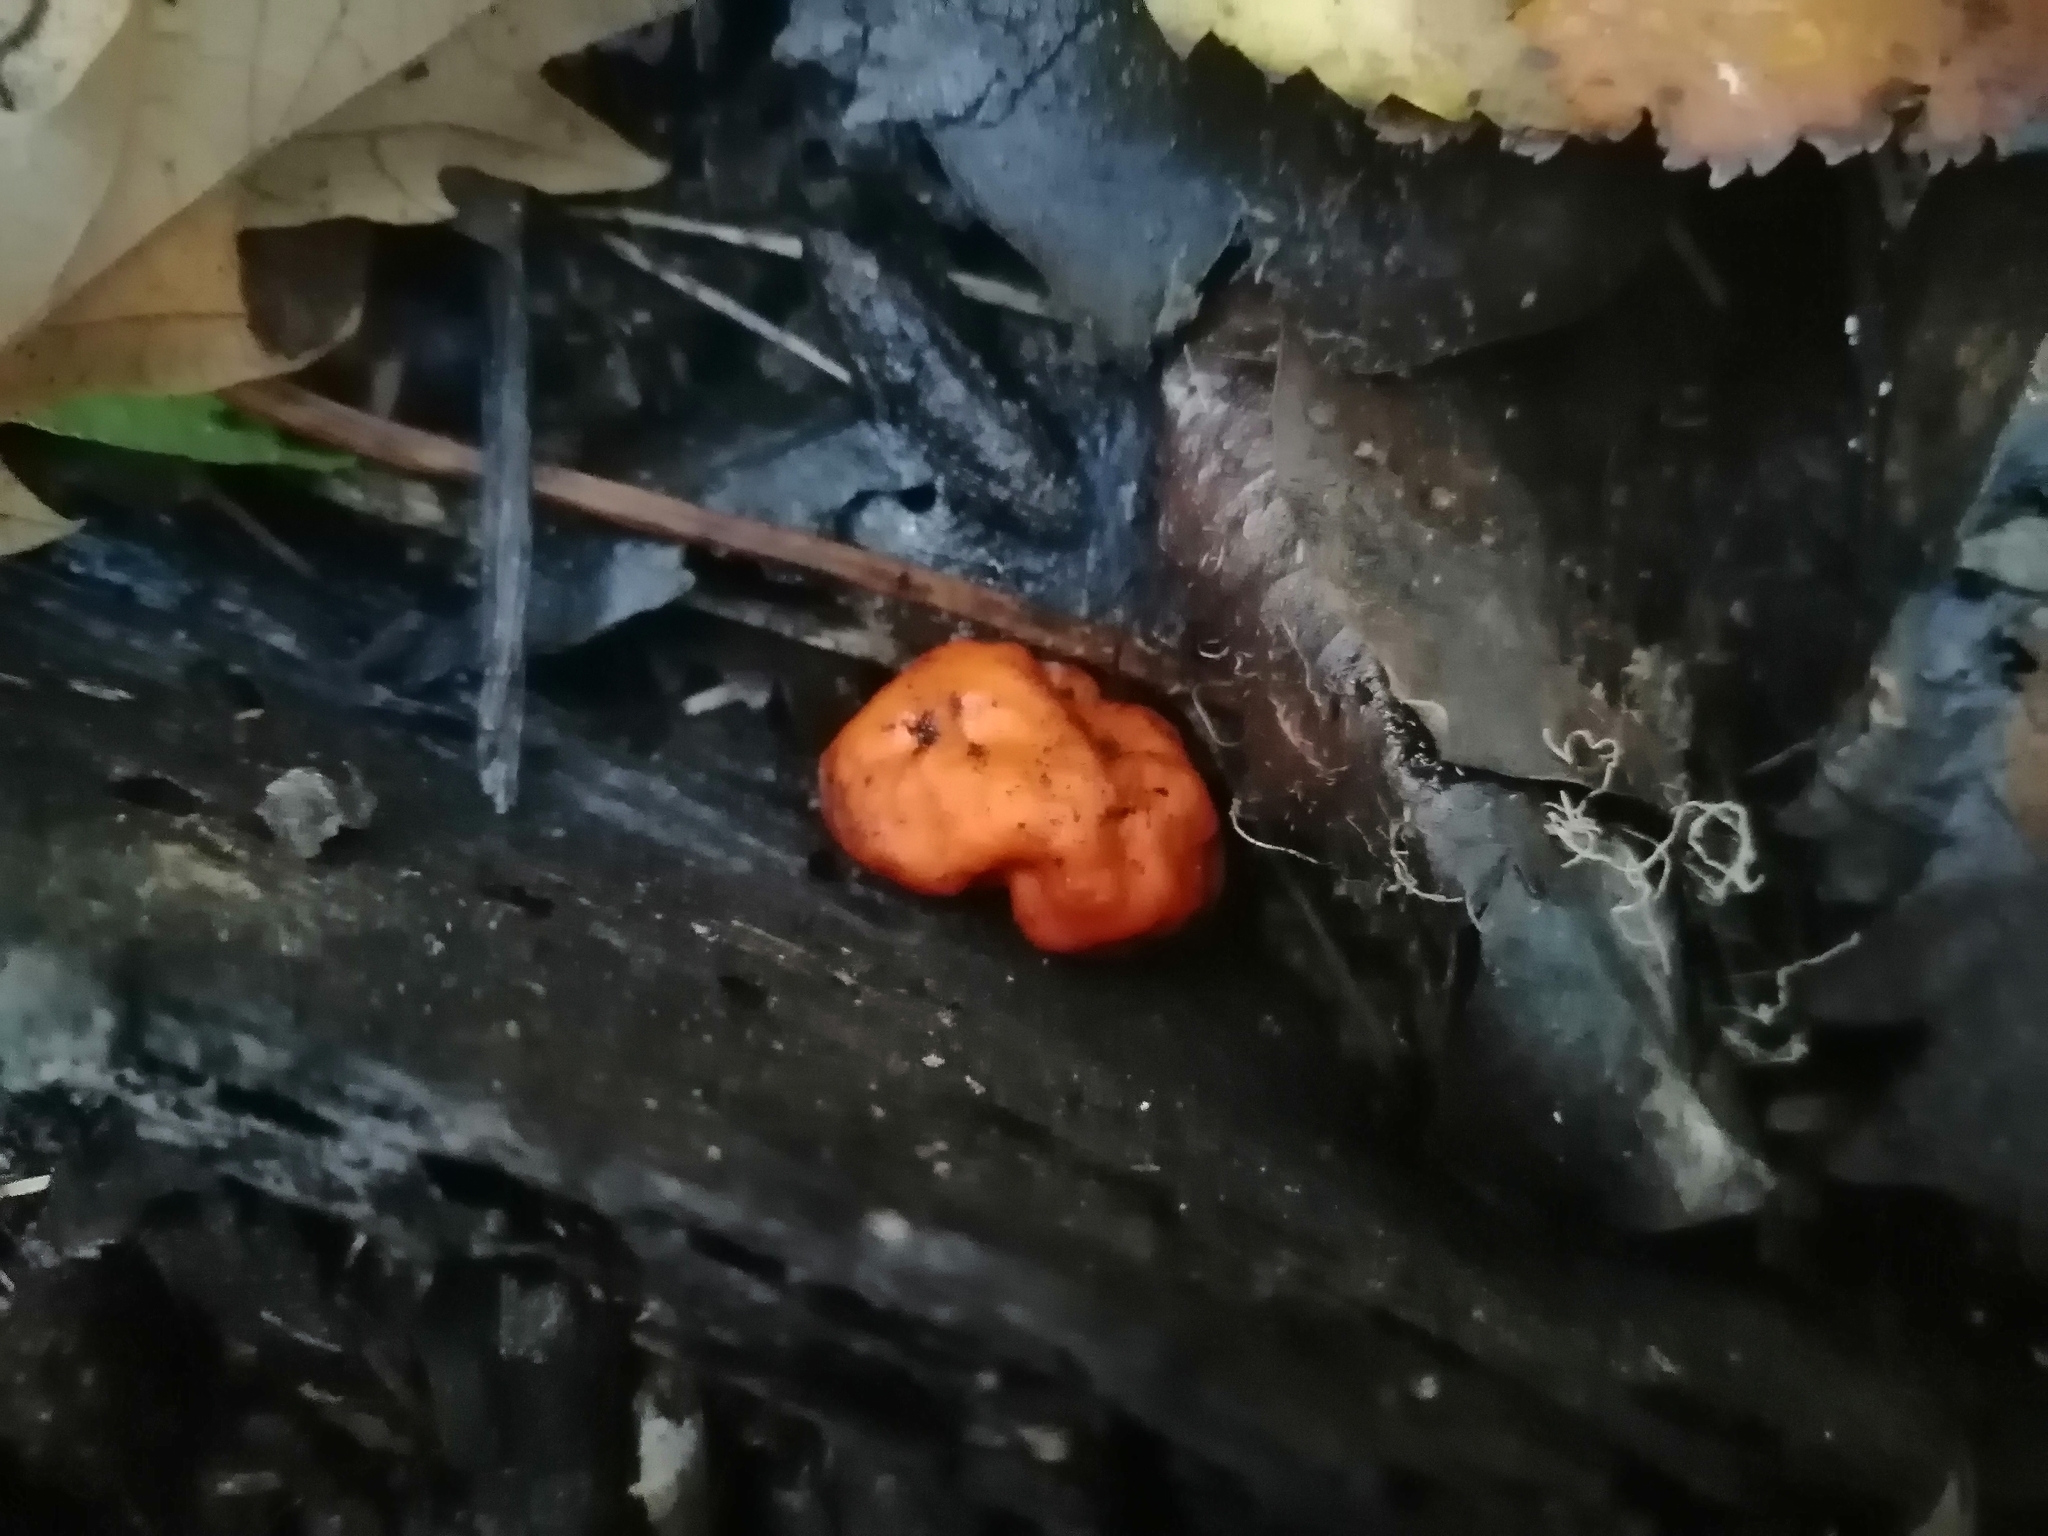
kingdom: Fungi
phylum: Ascomycota
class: Pezizomycetes
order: Pezizales
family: Pyronemataceae
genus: Paurocotylis
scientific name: Paurocotylis pila
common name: Scarlet berry truffle
